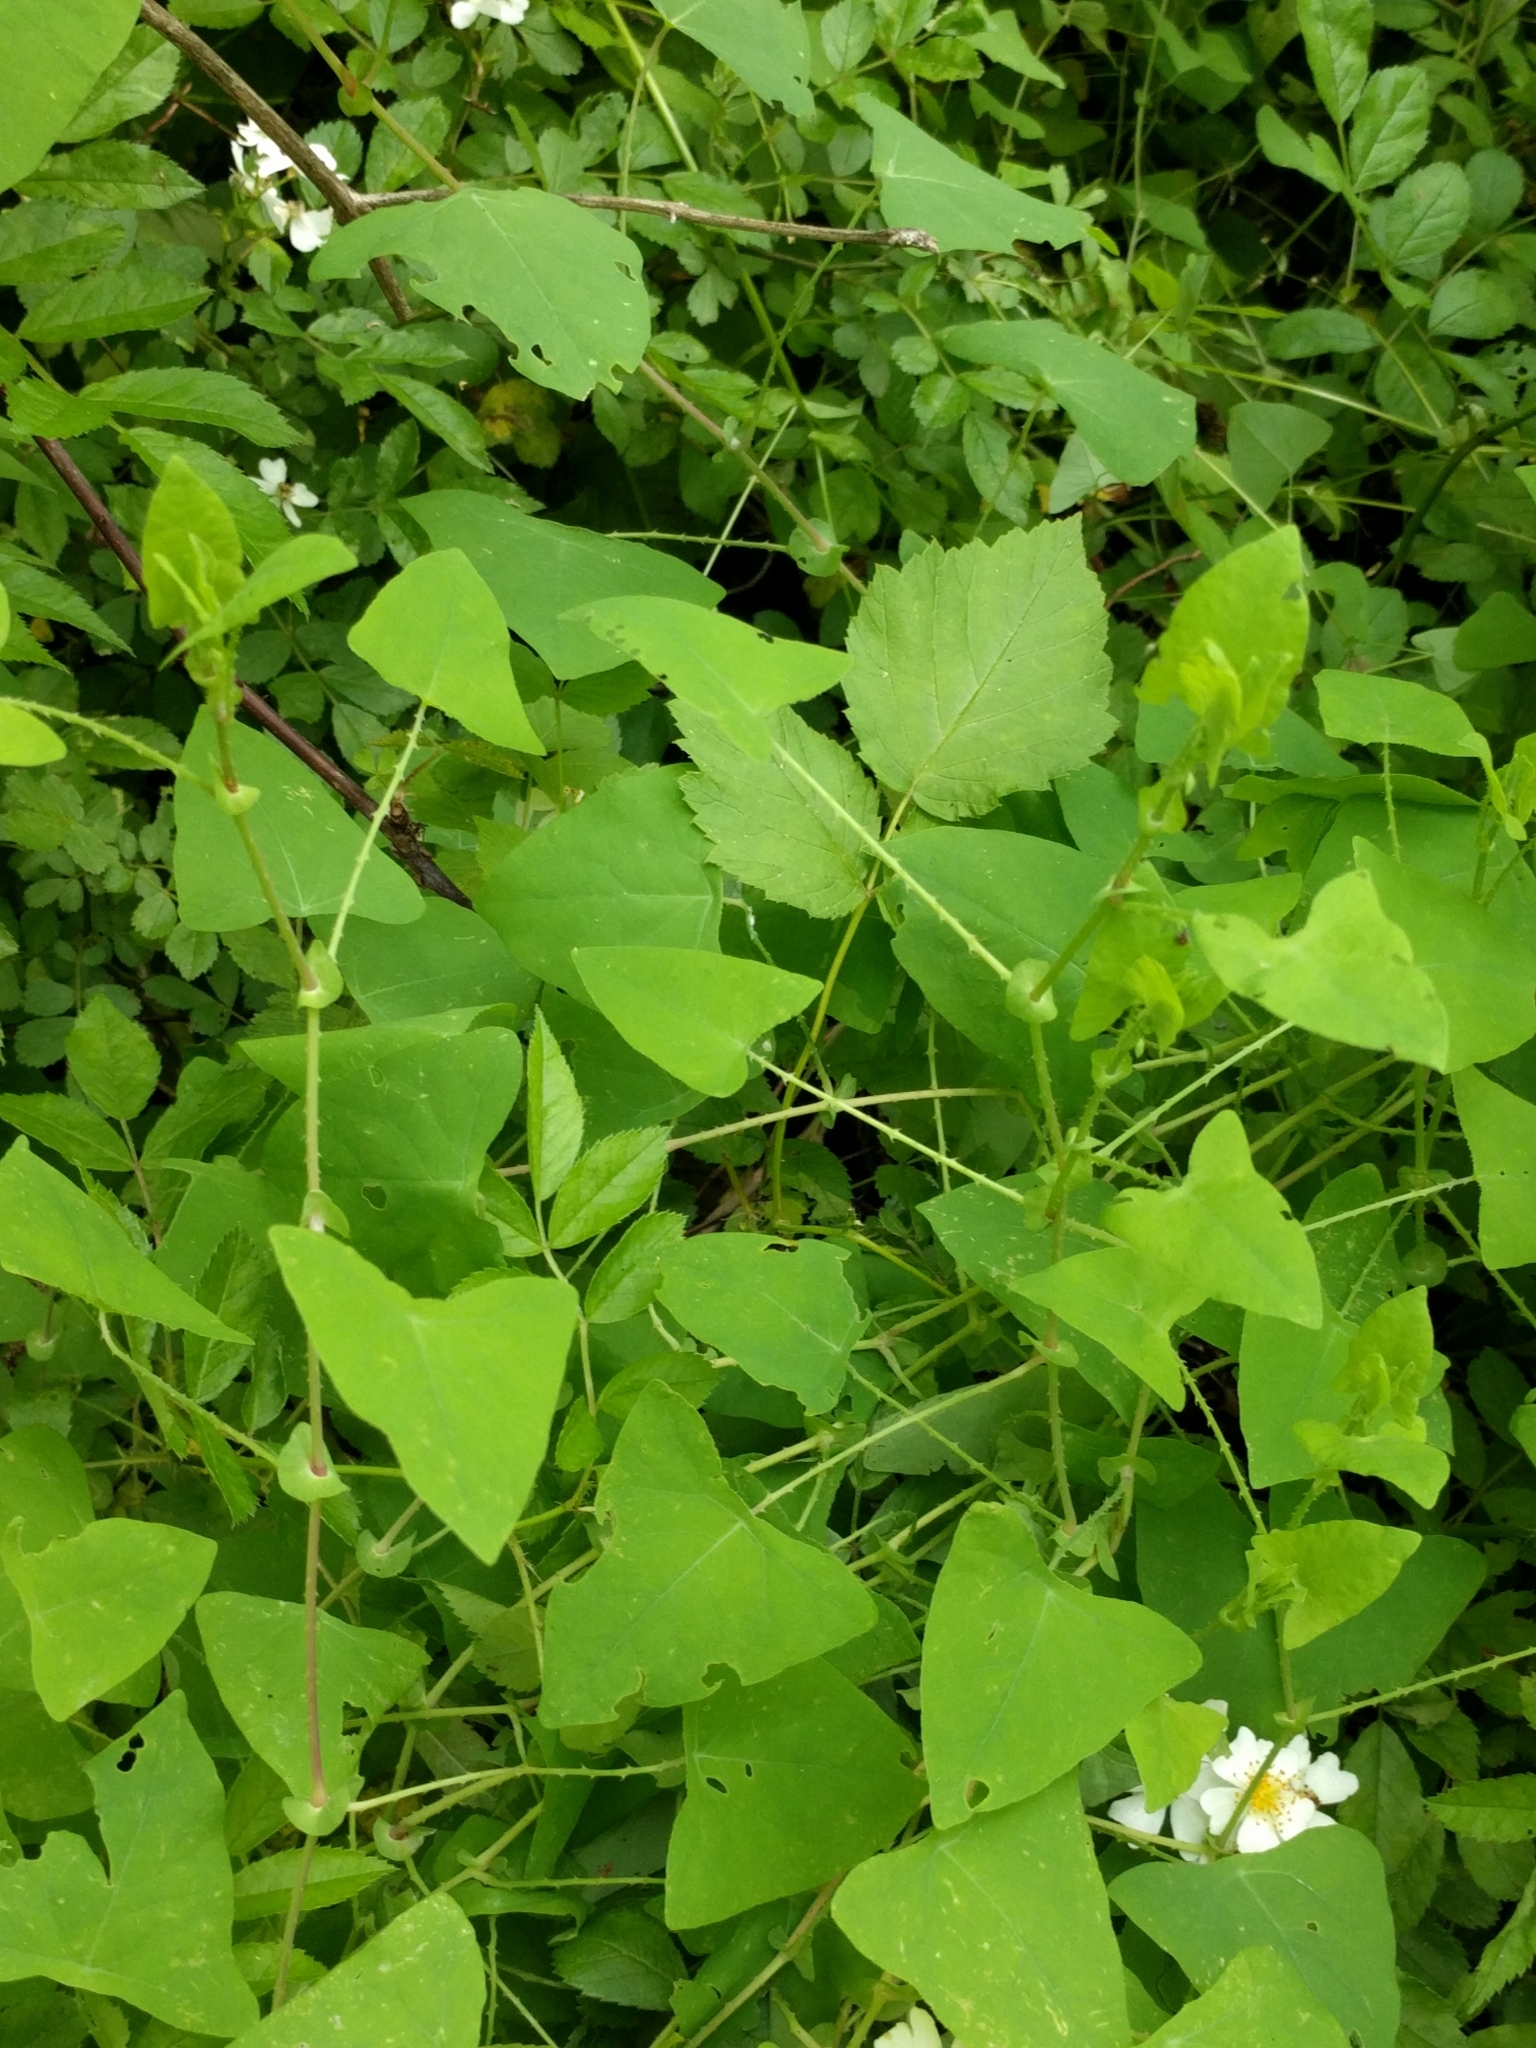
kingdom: Plantae
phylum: Tracheophyta
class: Magnoliopsida
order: Caryophyllales
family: Polygonaceae
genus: Persicaria
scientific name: Persicaria perfoliata
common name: Asiatic tearthumb
